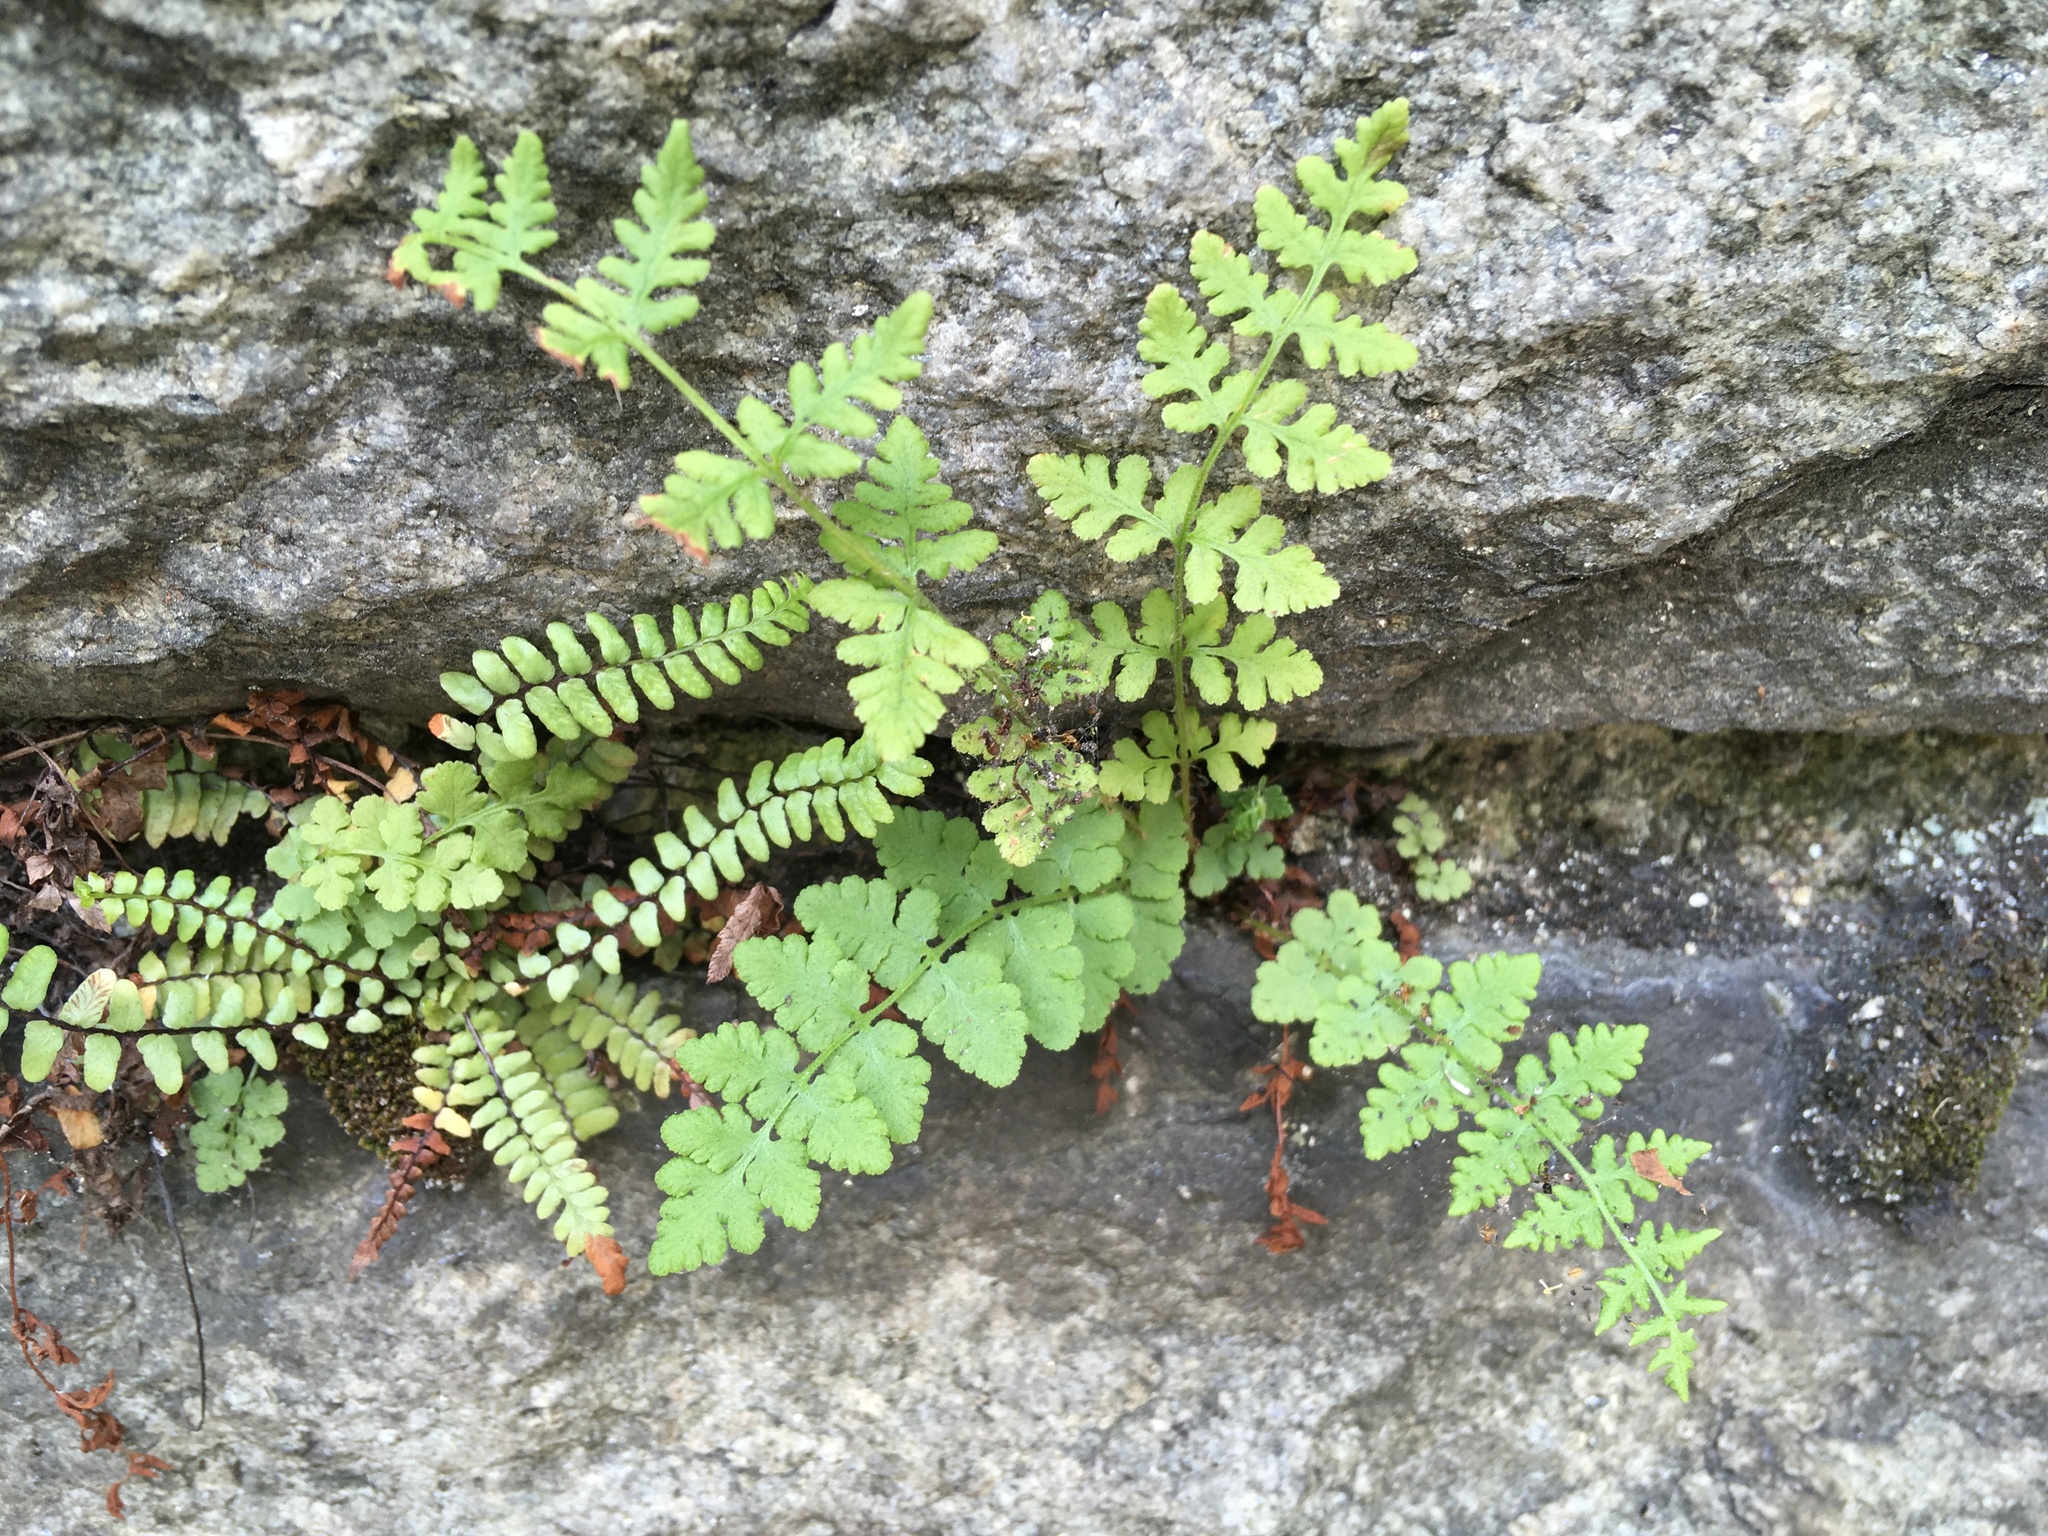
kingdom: Plantae
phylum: Tracheophyta
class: Polypodiopsida
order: Polypodiales
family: Woodsiaceae
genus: Physematium
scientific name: Physematium obtusum
